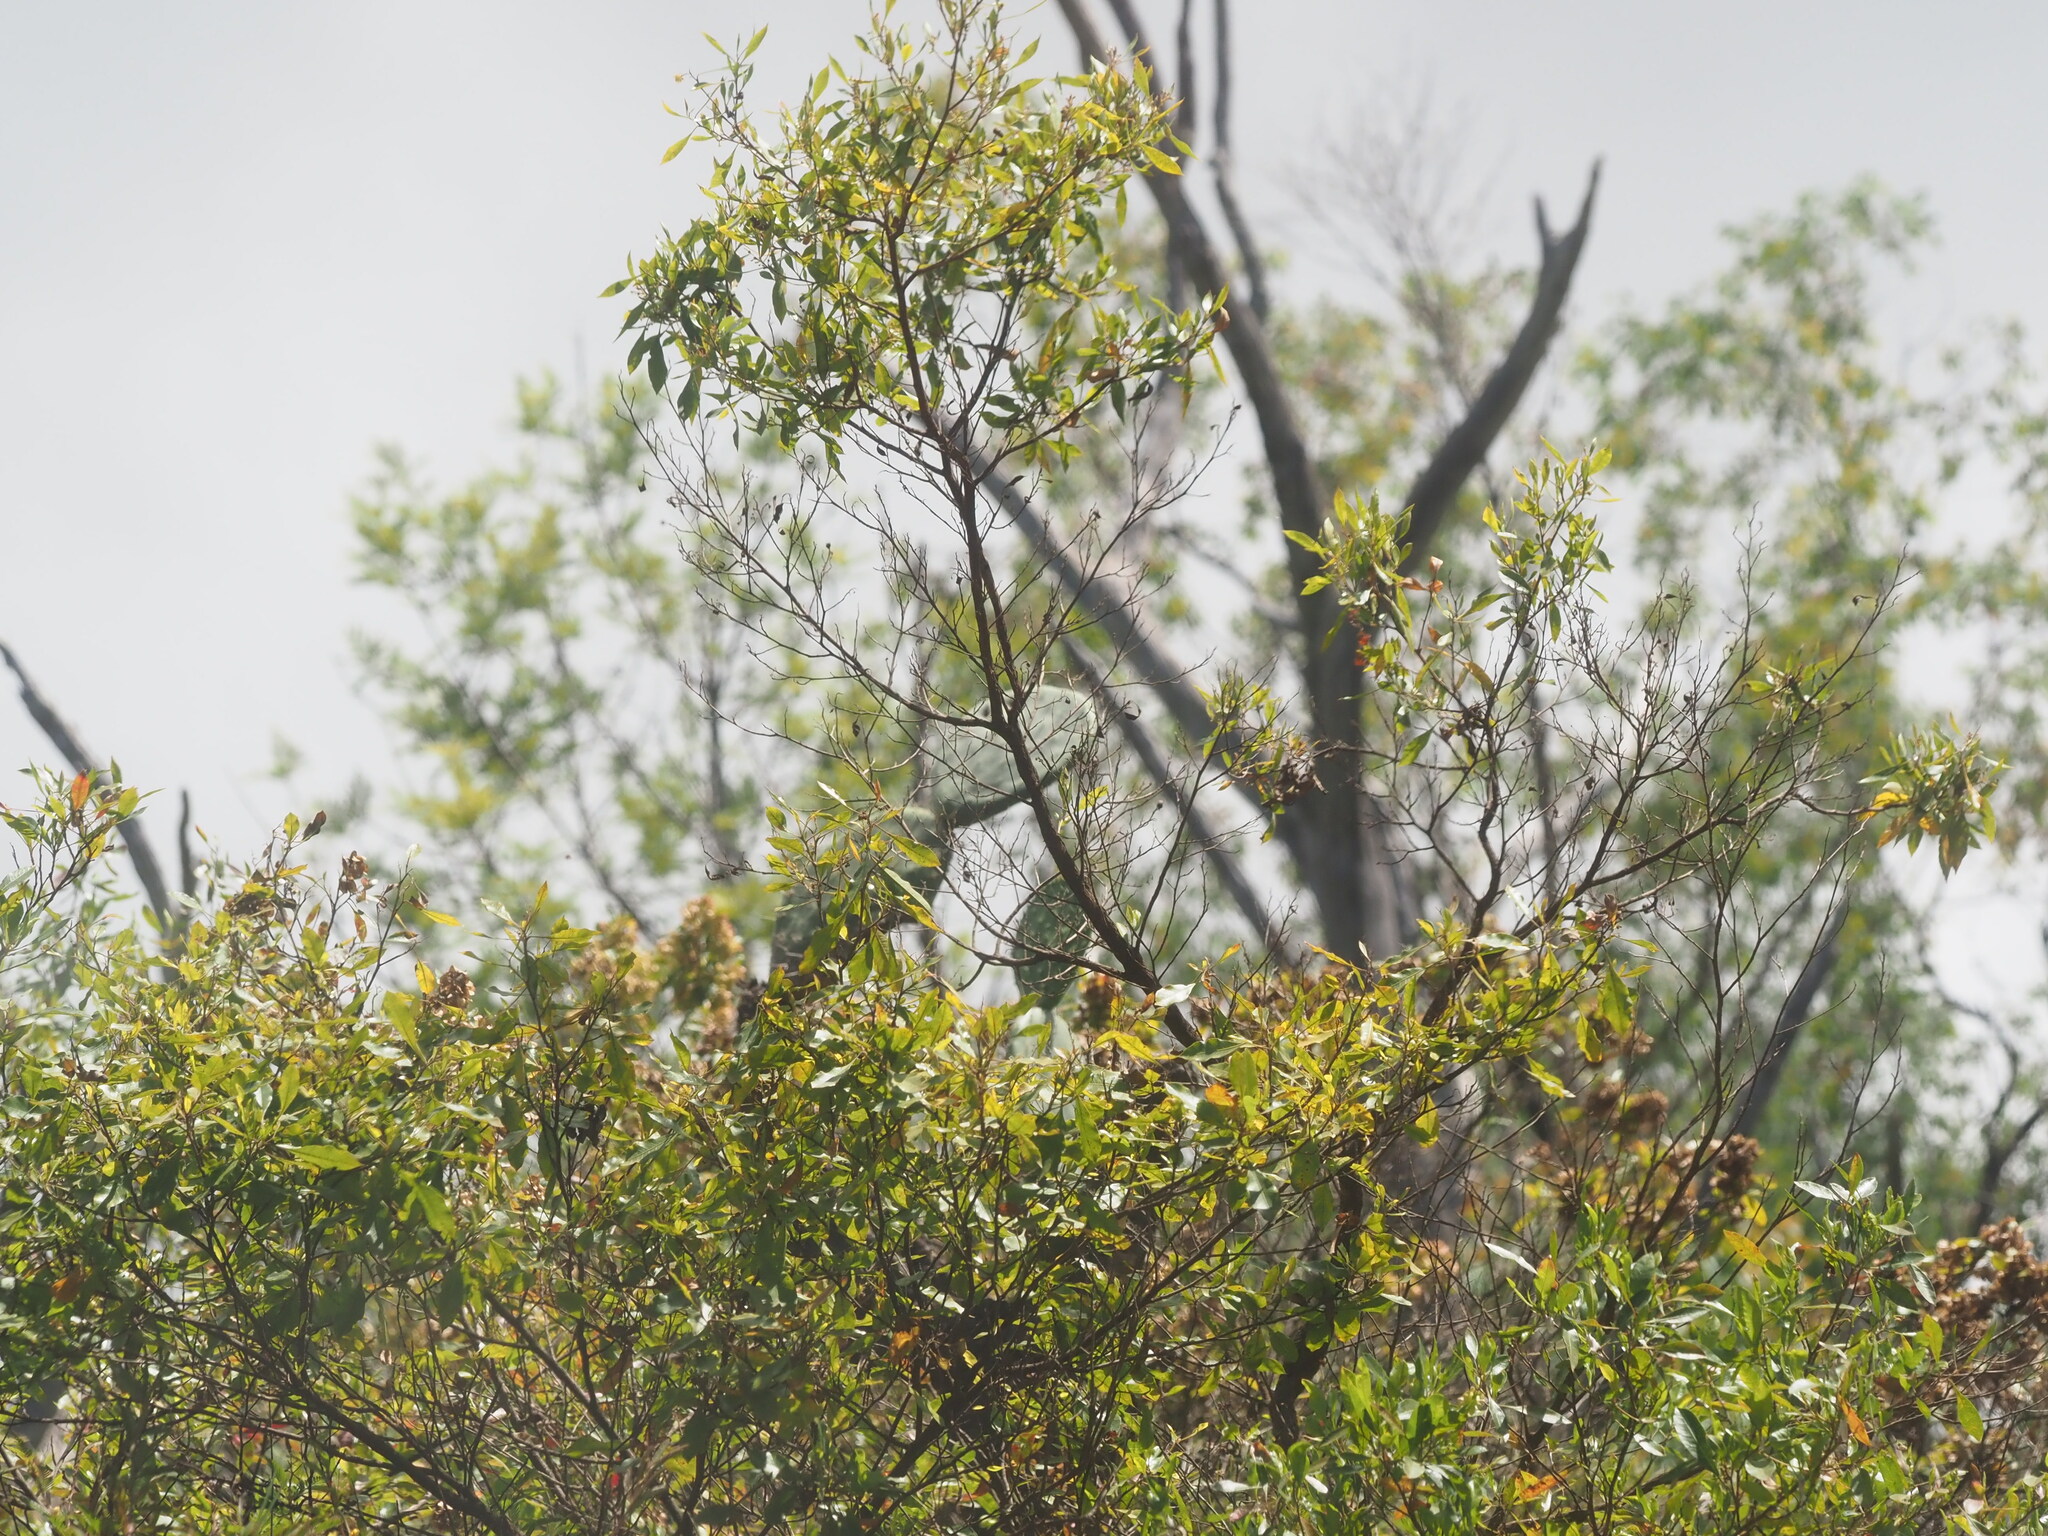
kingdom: Plantae
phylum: Tracheophyta
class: Magnoliopsida
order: Sapindales
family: Sapindaceae
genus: Dodonaea
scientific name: Dodonaea viscosa
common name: Hopbush
